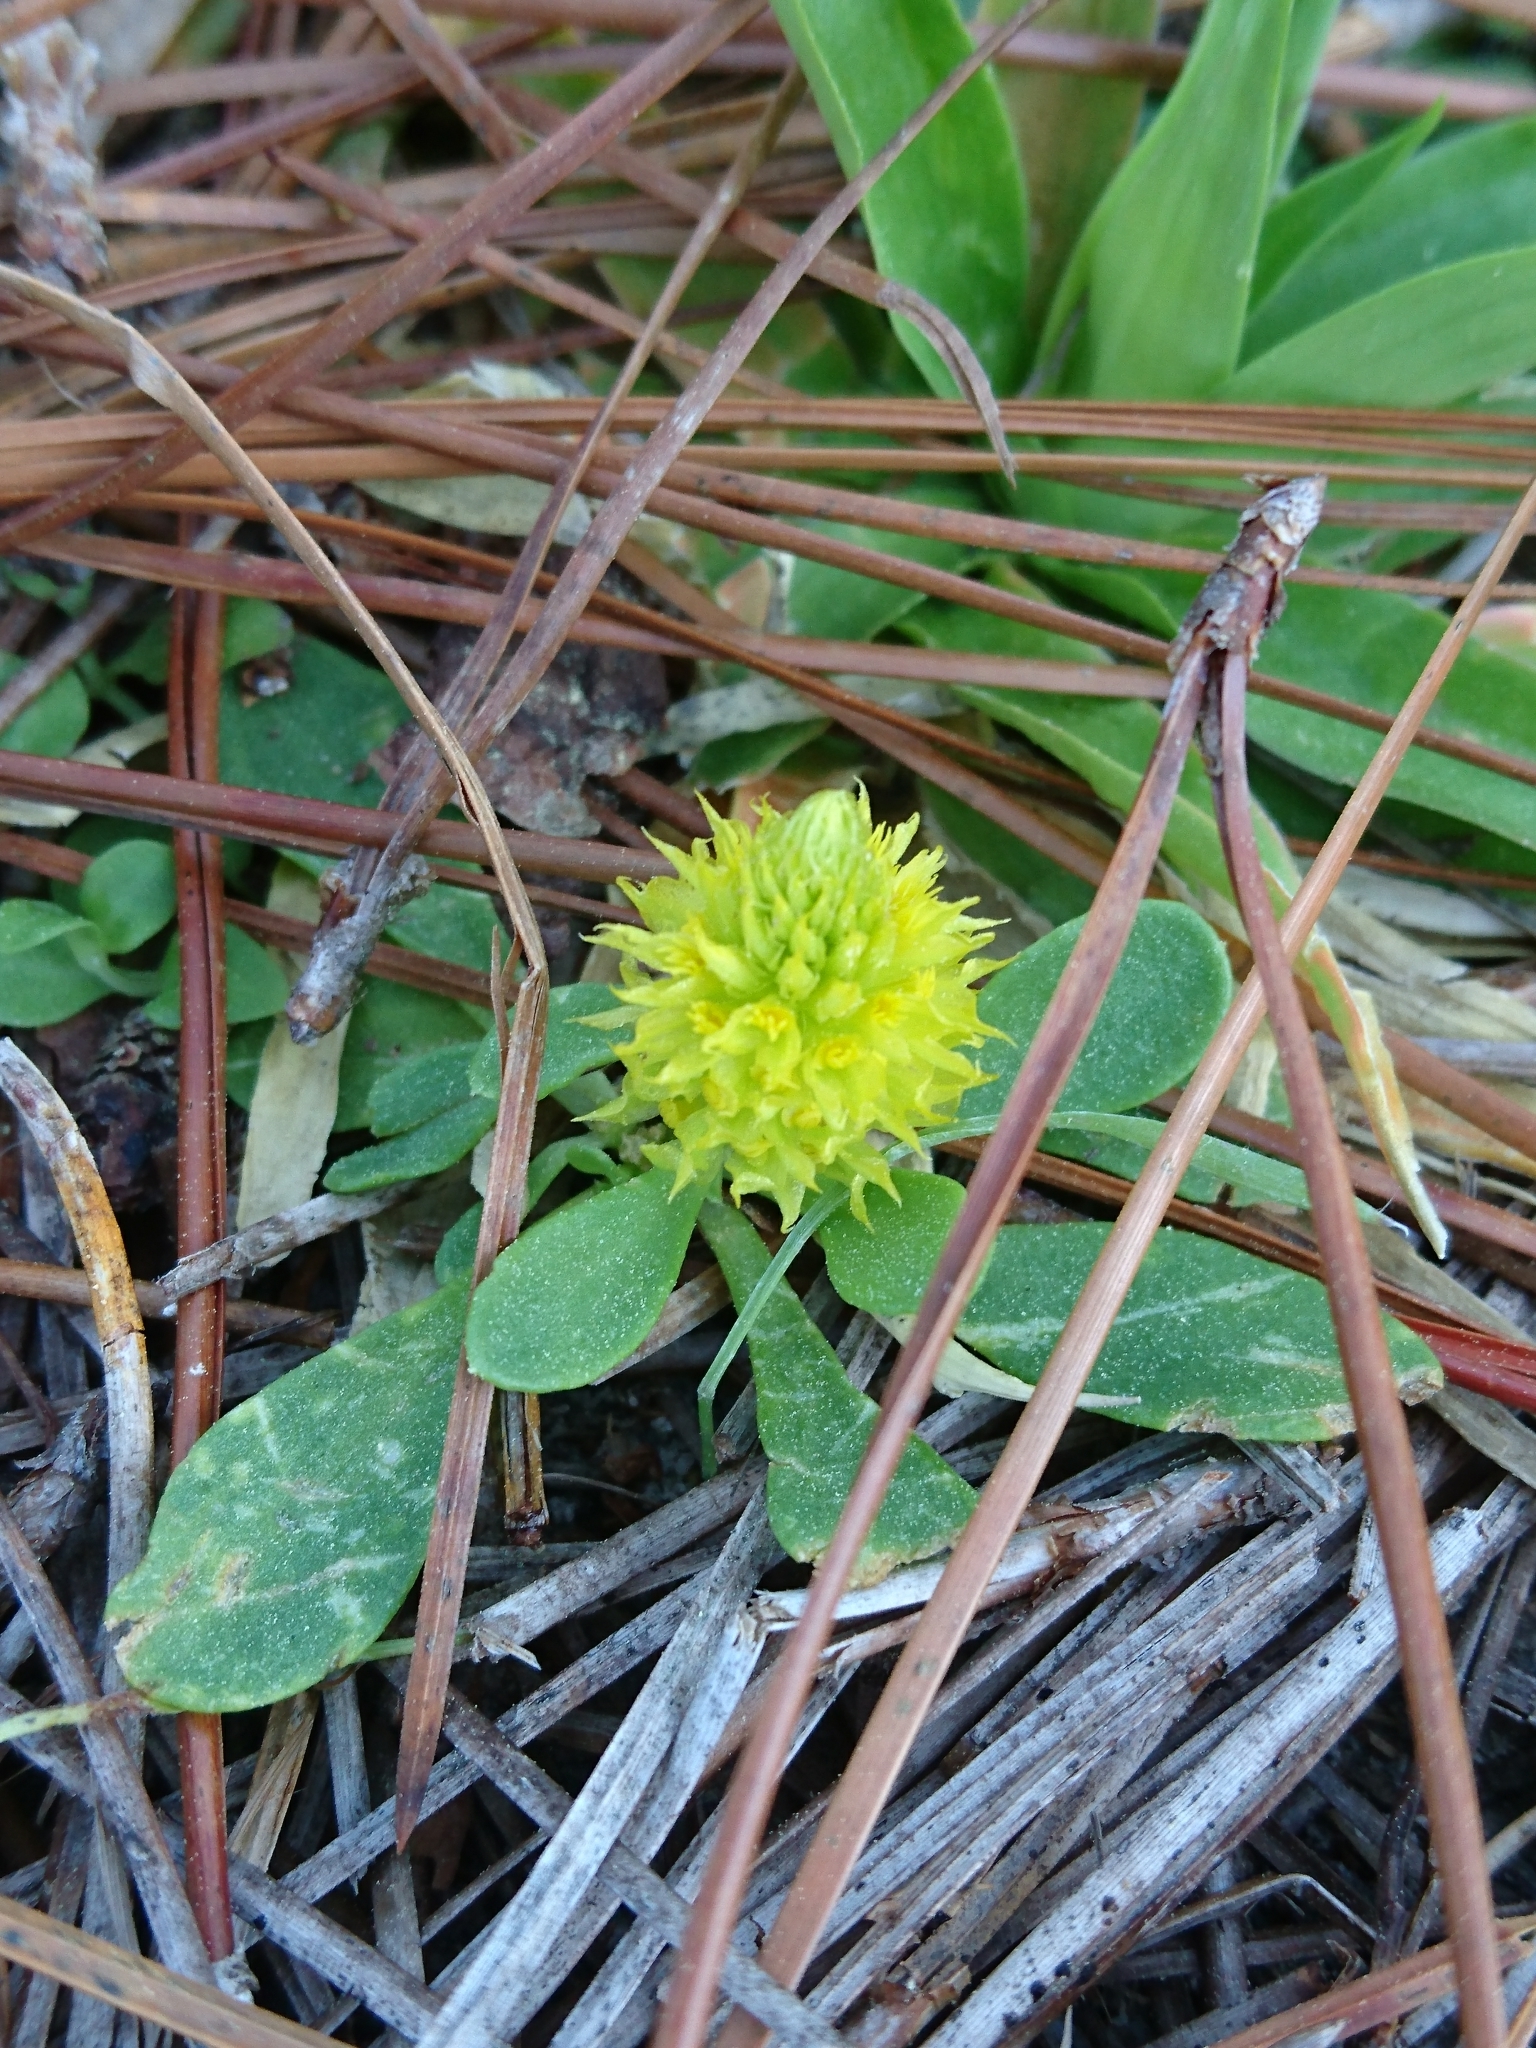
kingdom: Plantae
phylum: Tracheophyta
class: Magnoliopsida
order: Fabales
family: Polygalaceae
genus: Polygala
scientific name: Polygala nana
